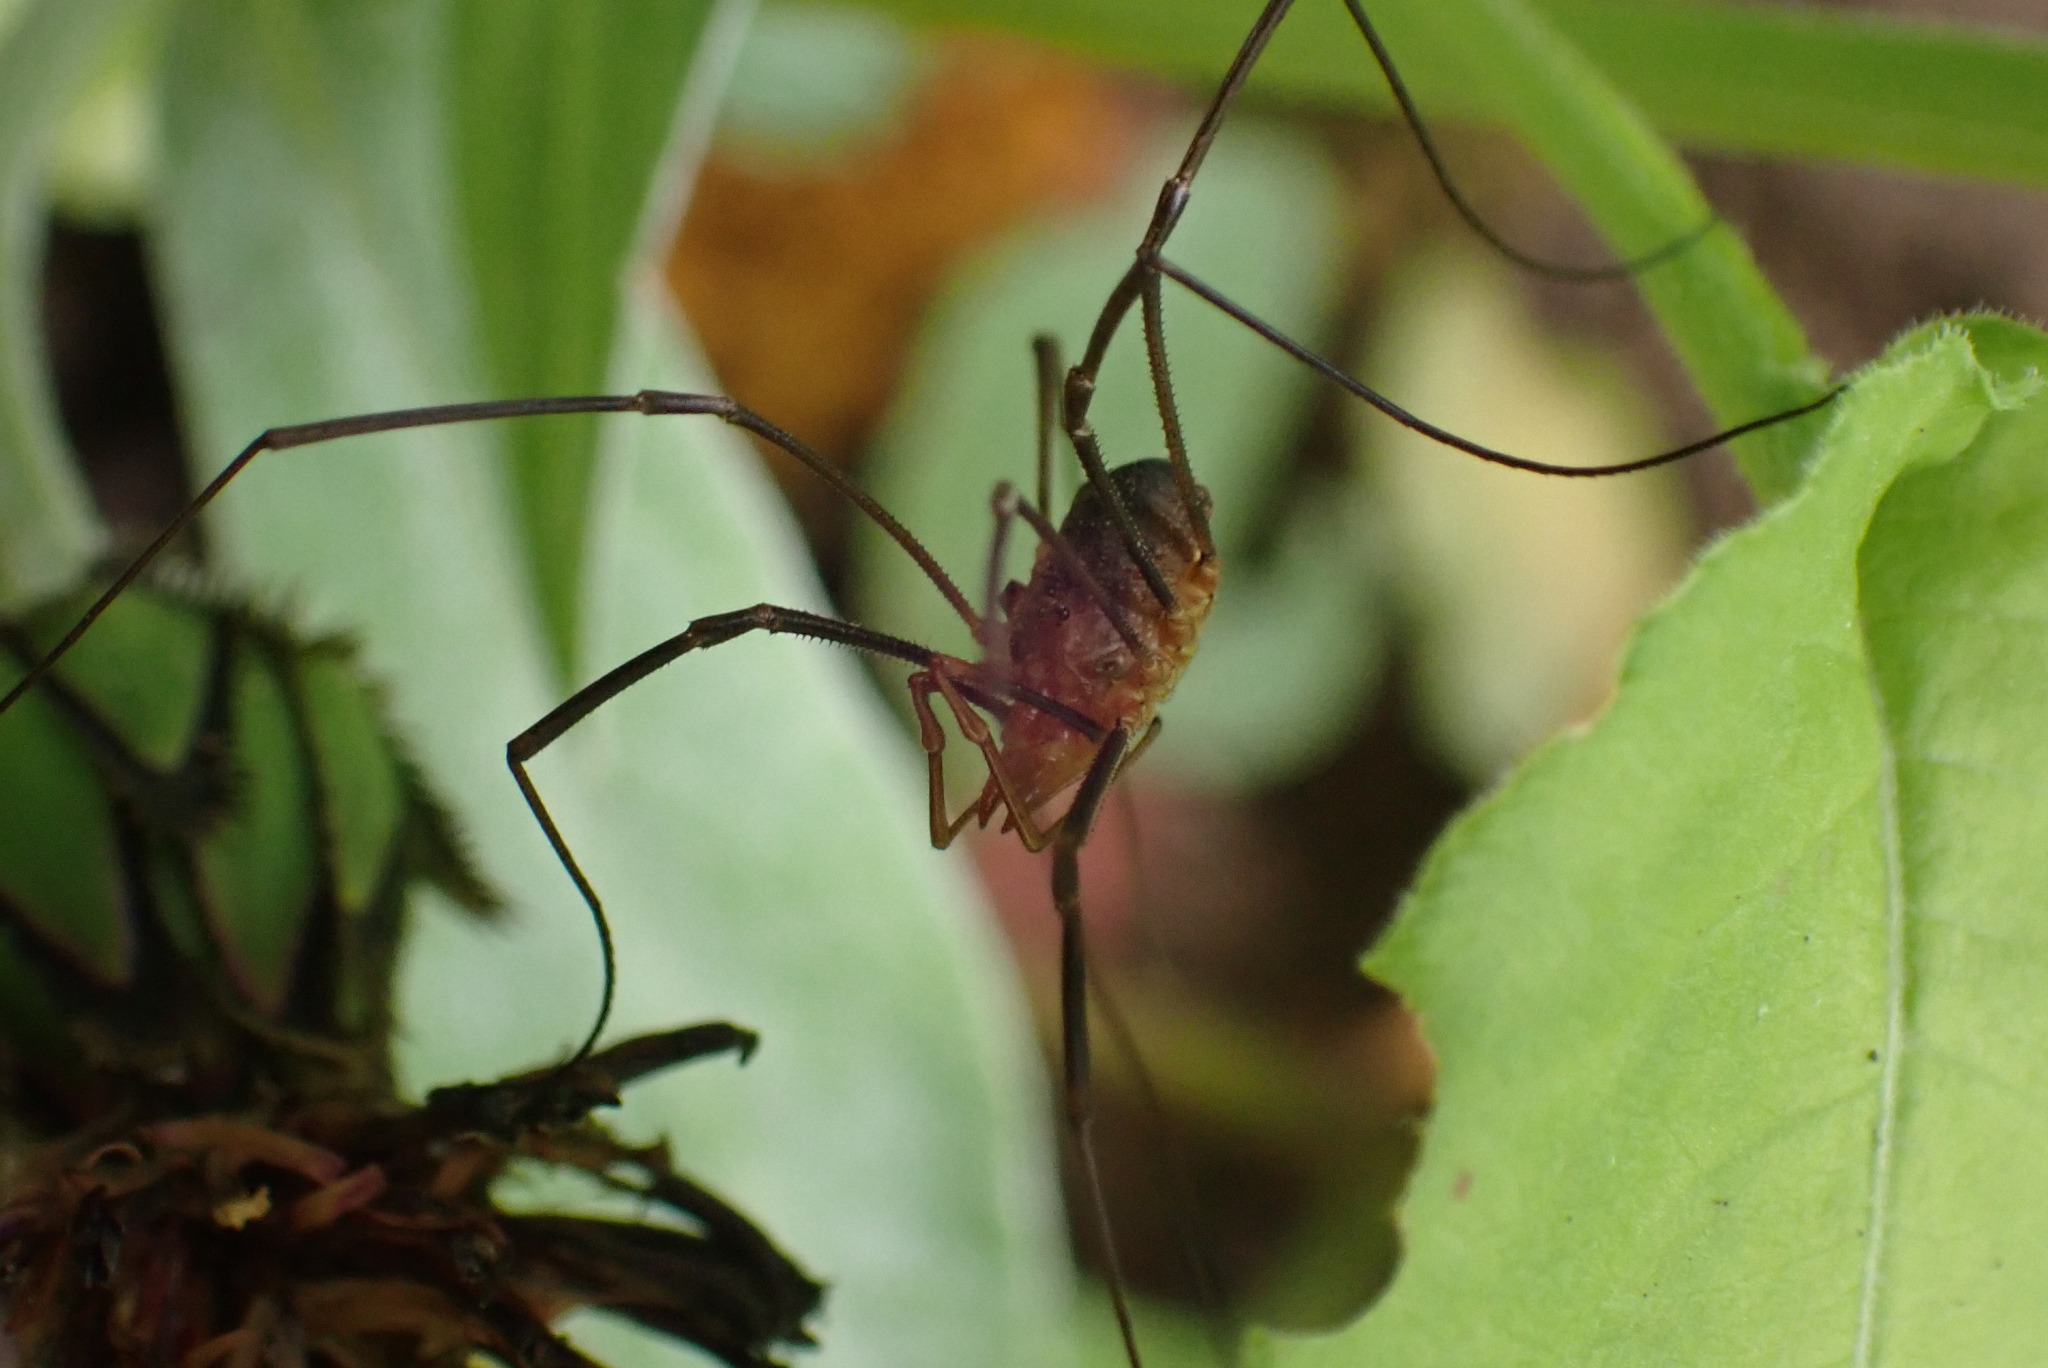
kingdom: Animalia
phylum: Arthropoda
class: Arachnida
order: Opiliones
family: Phalangiidae
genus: Phalangium
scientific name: Phalangium opilio
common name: Daddy longleg
